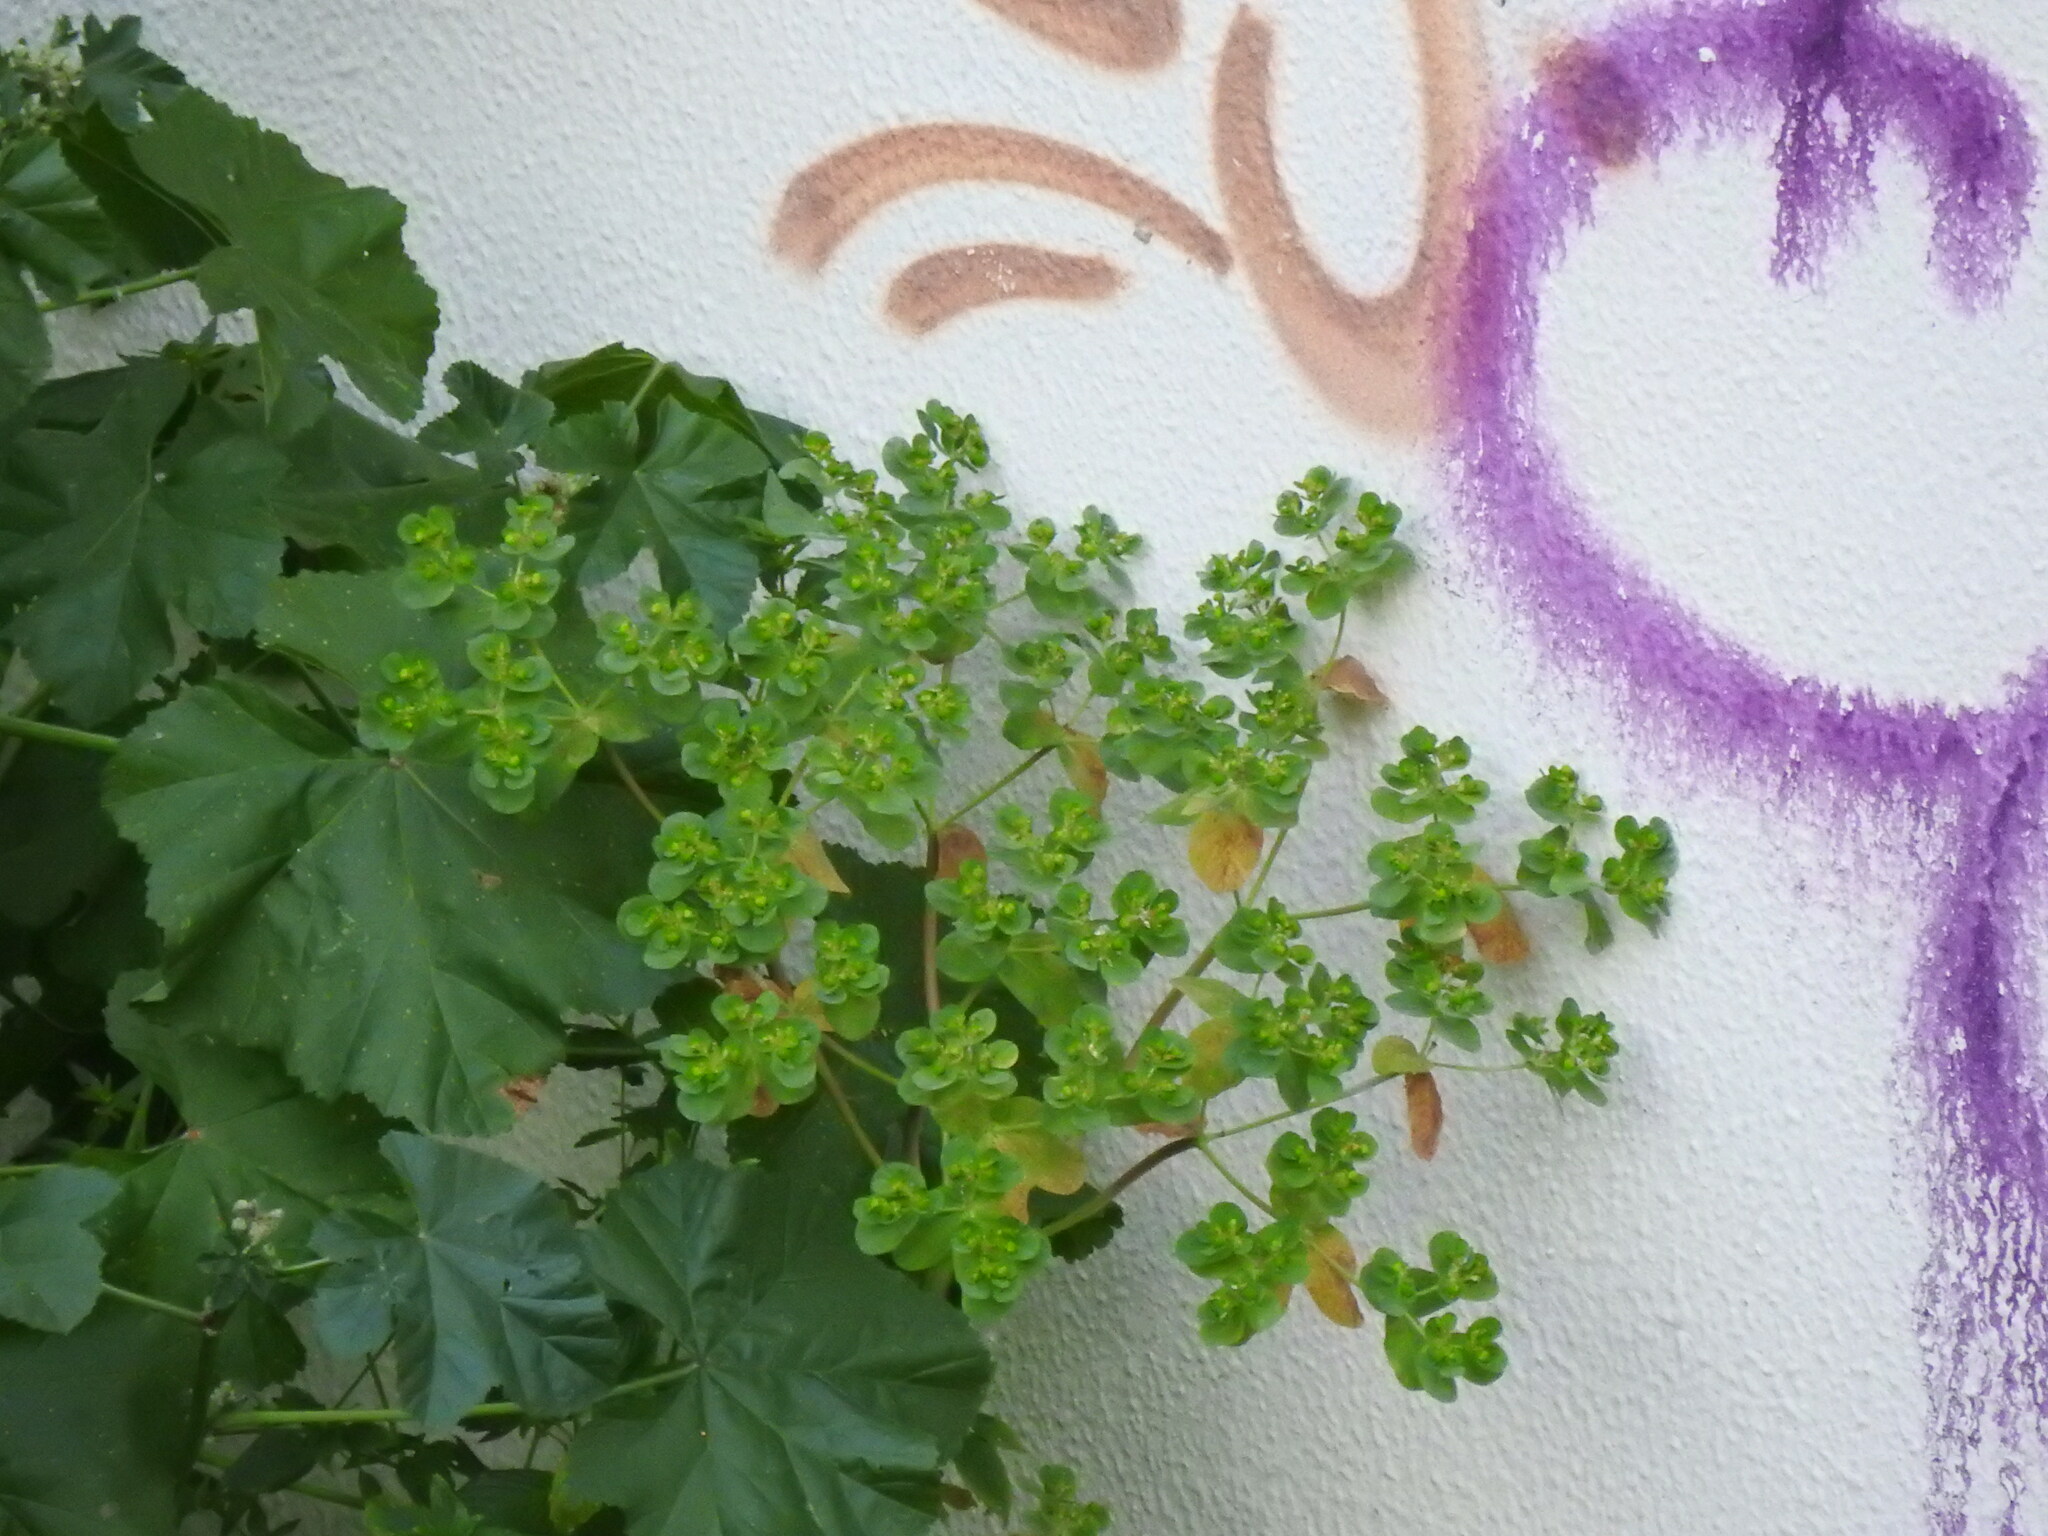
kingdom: Plantae
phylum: Tracheophyta
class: Magnoliopsida
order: Malpighiales
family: Euphorbiaceae
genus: Euphorbia
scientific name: Euphorbia helioscopia
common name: Sun spurge
